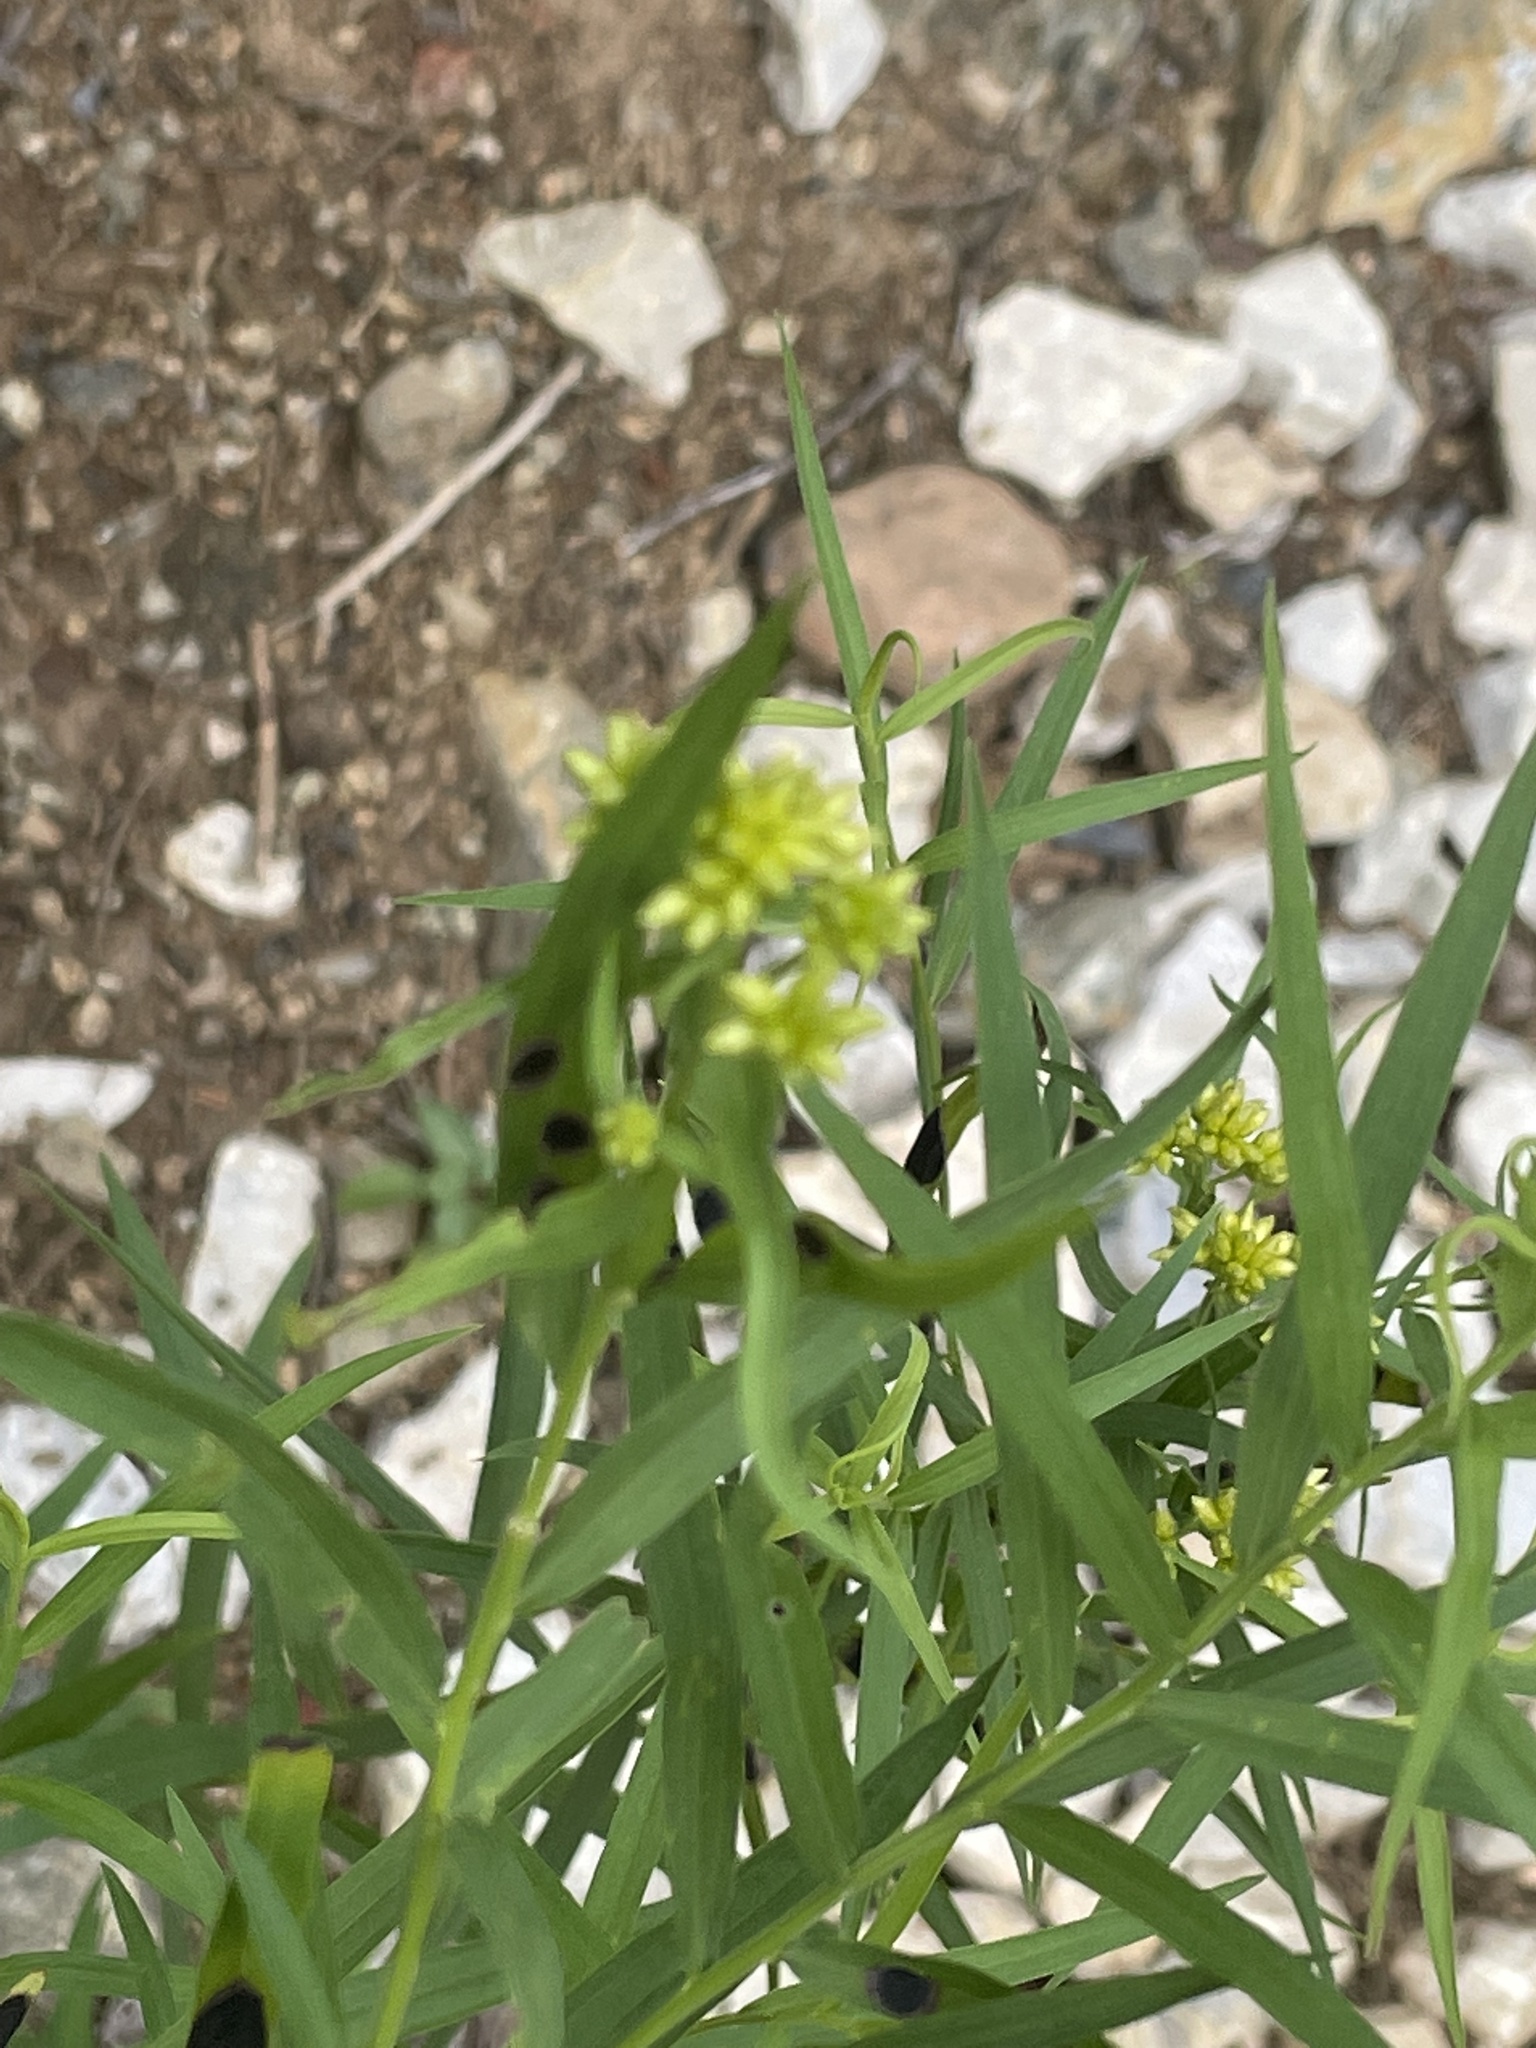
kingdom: Animalia
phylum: Arthropoda
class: Insecta
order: Diptera
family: Cecidomyiidae
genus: Asteromyia
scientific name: Asteromyia euthamiae
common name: Euthamia leaf gall midge
